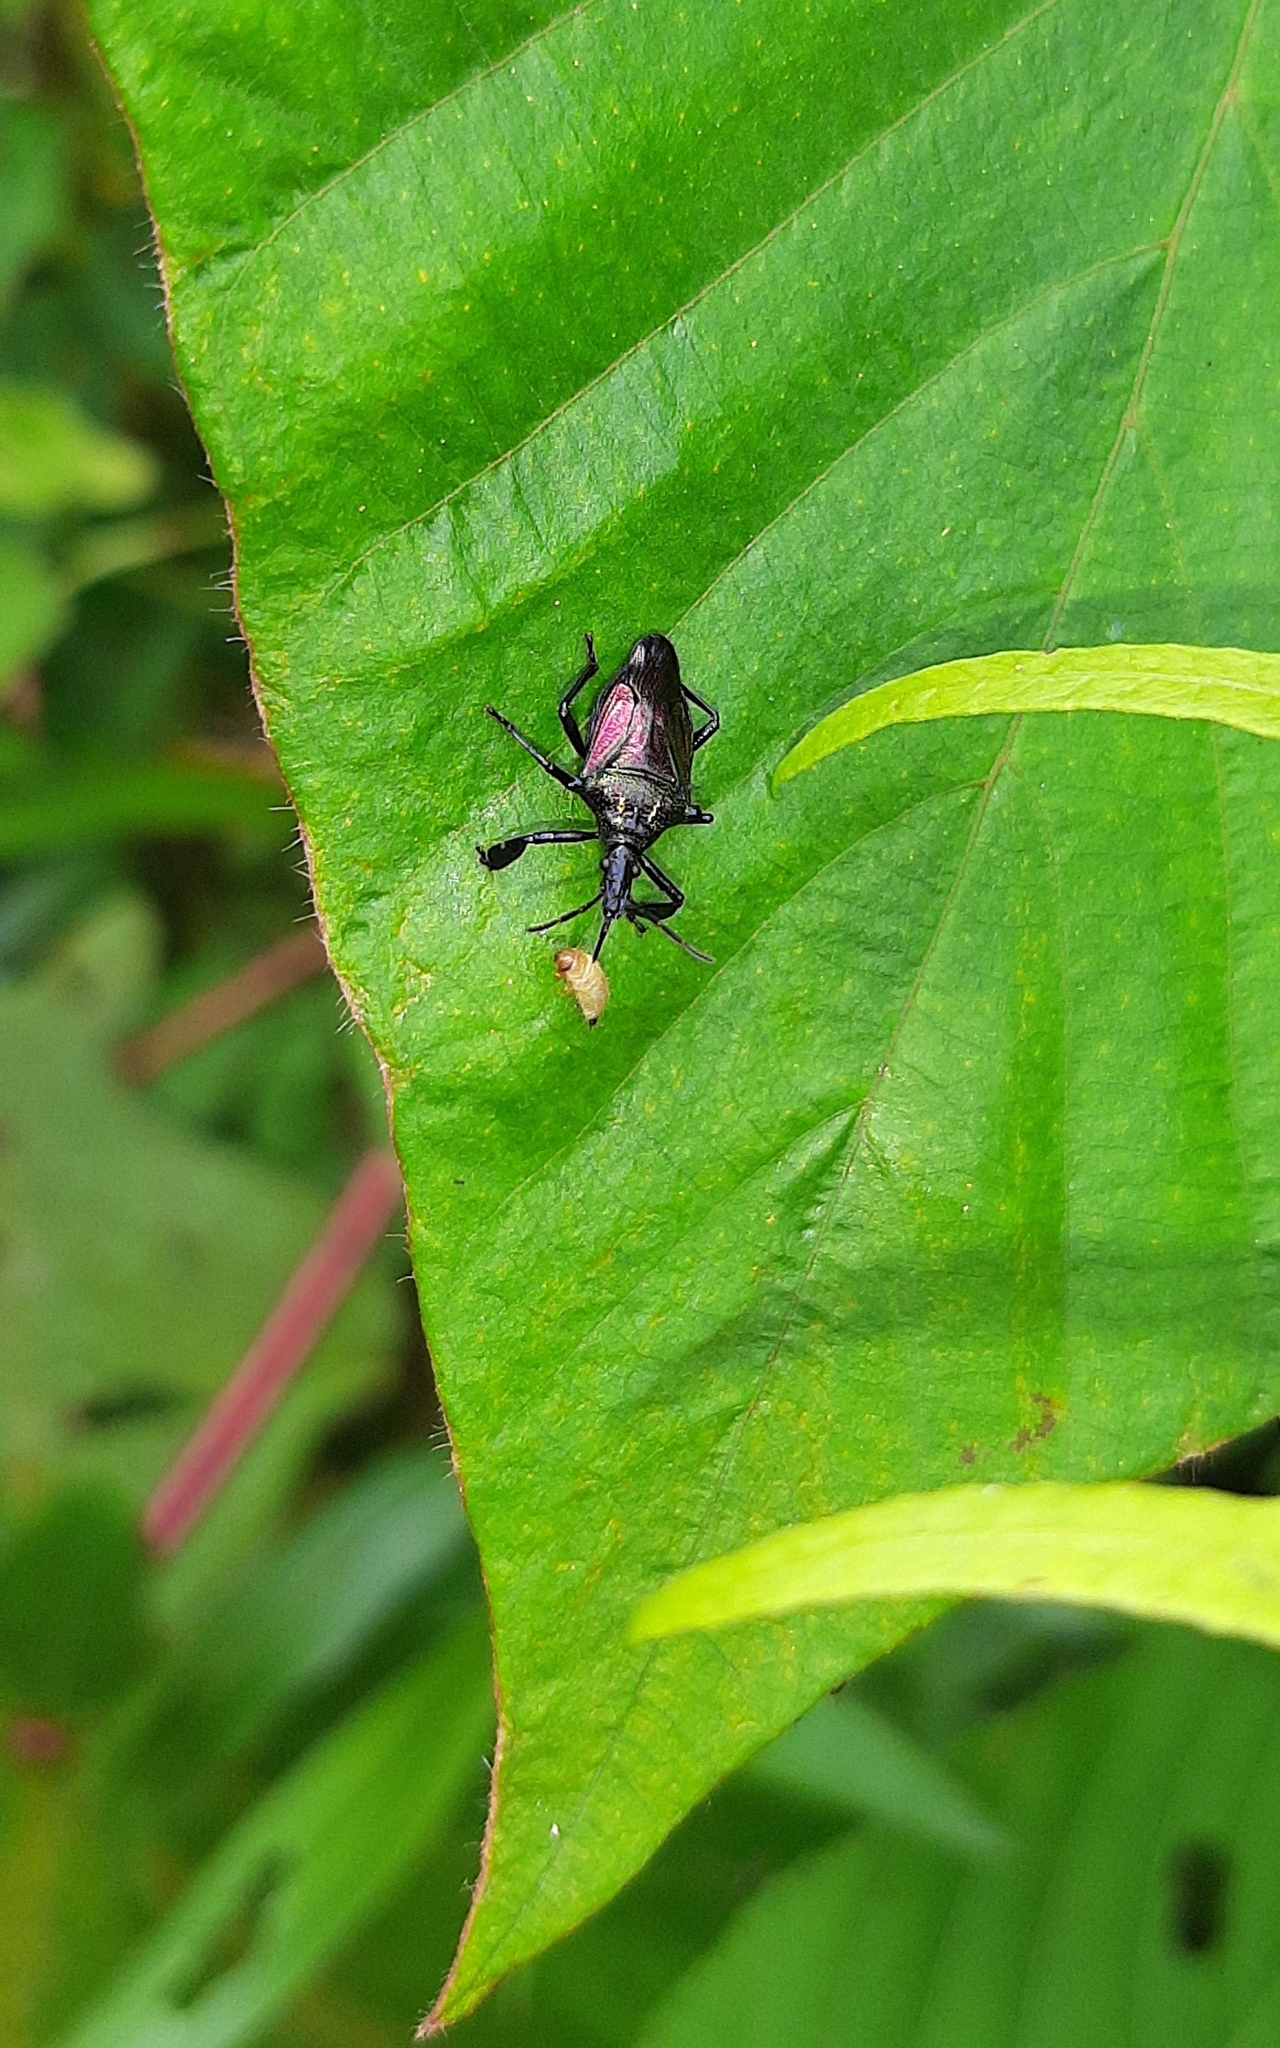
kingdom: Animalia
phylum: Arthropoda
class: Insecta
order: Hemiptera
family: Pentatomidae
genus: Heteroscelis
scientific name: Heteroscelis servillii
